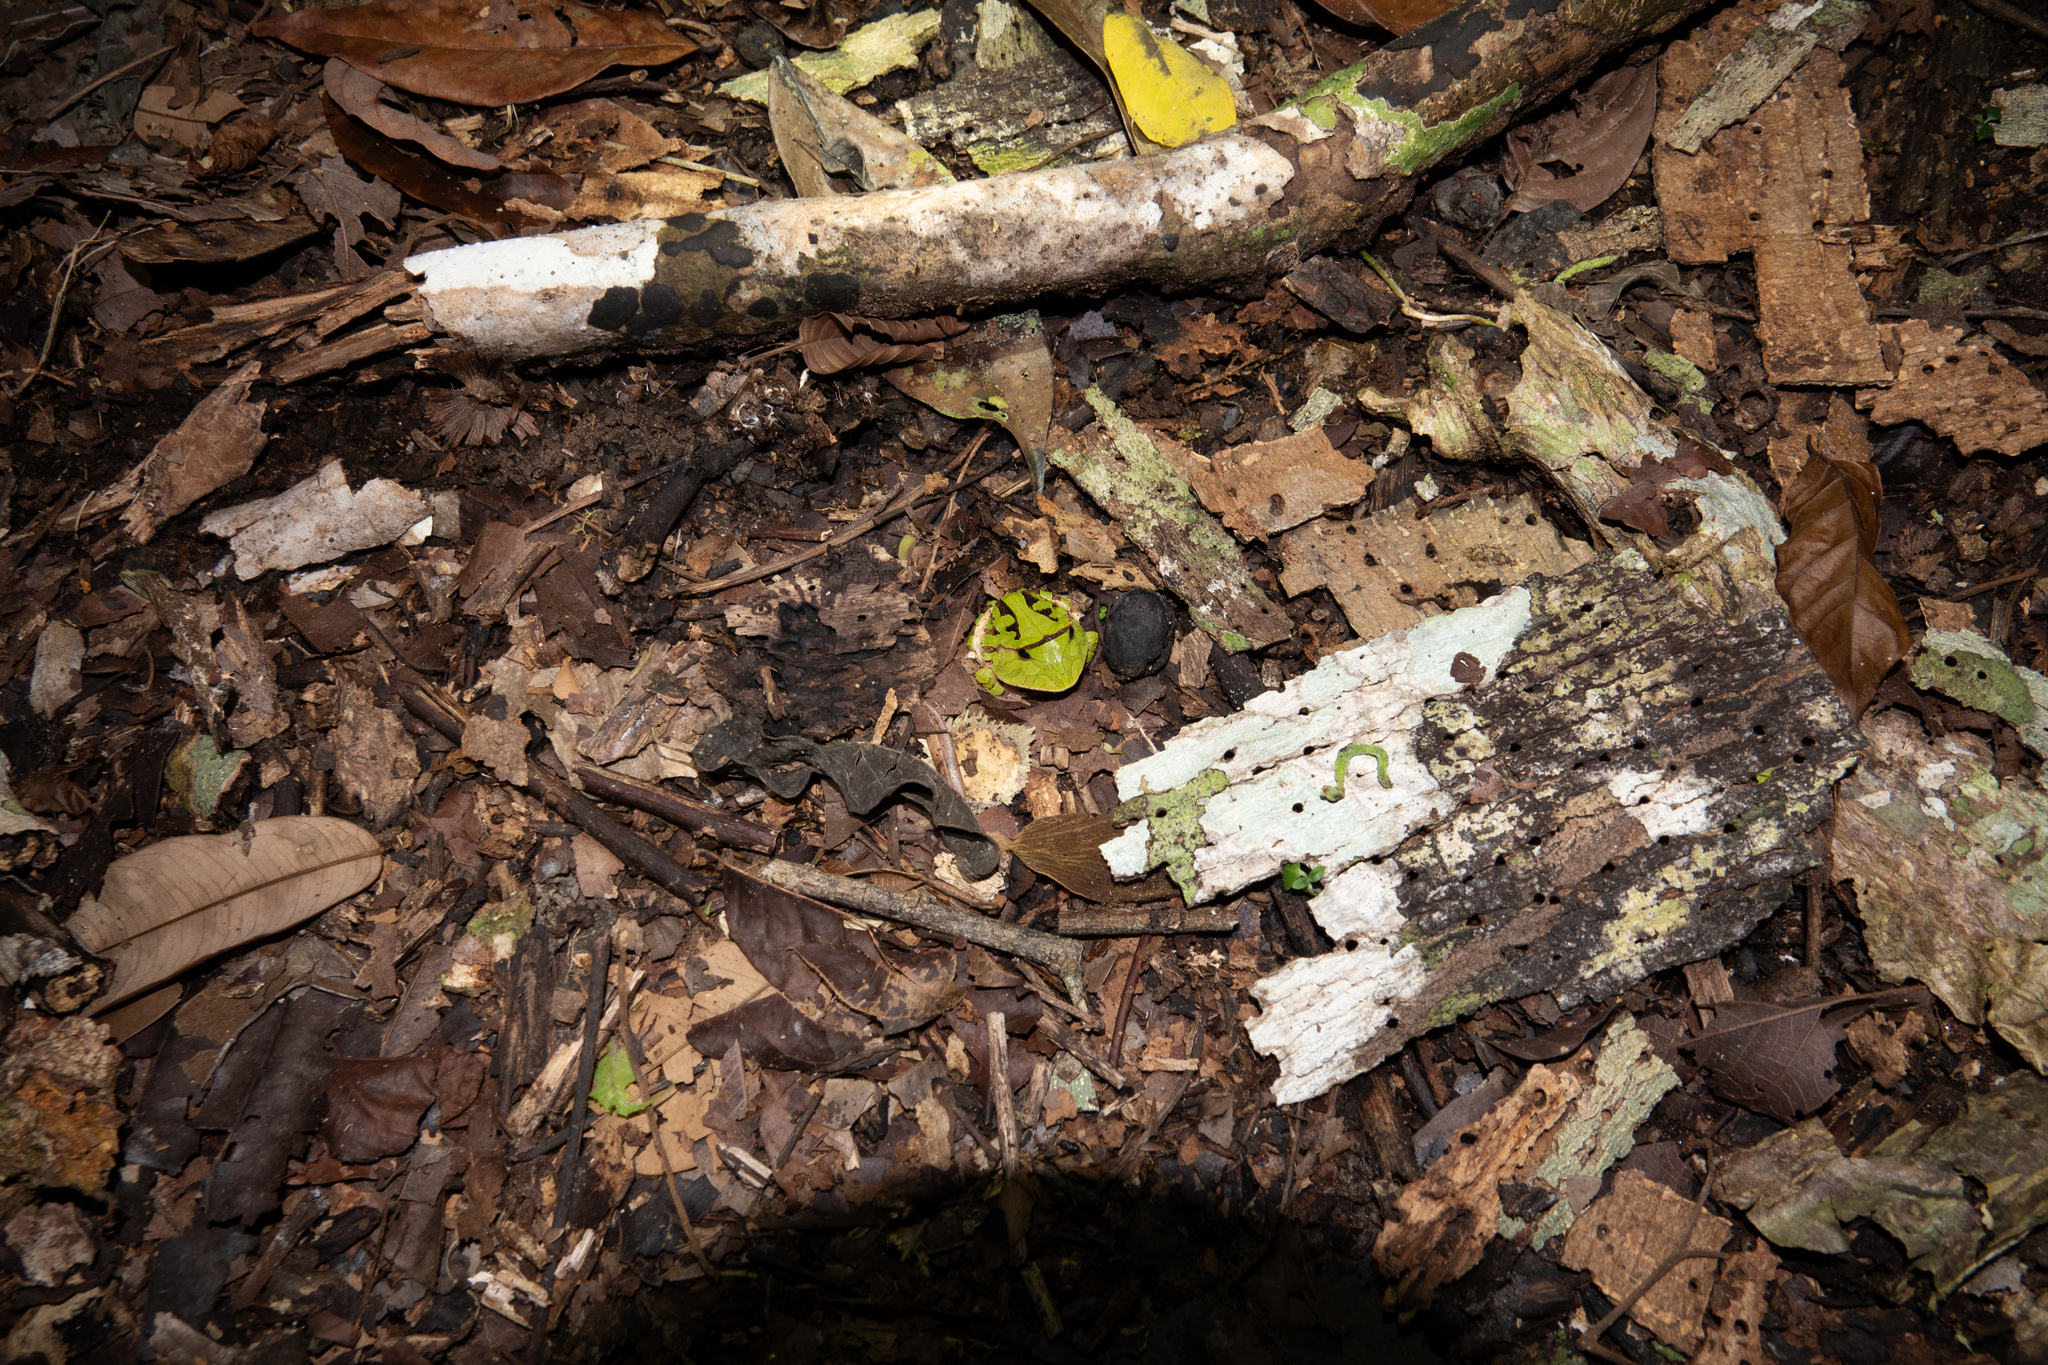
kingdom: Animalia
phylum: Chordata
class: Amphibia
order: Anura
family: Ceratophryidae
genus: Ceratophrys
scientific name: Ceratophrys cornuta
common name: Amazonian horned frog
